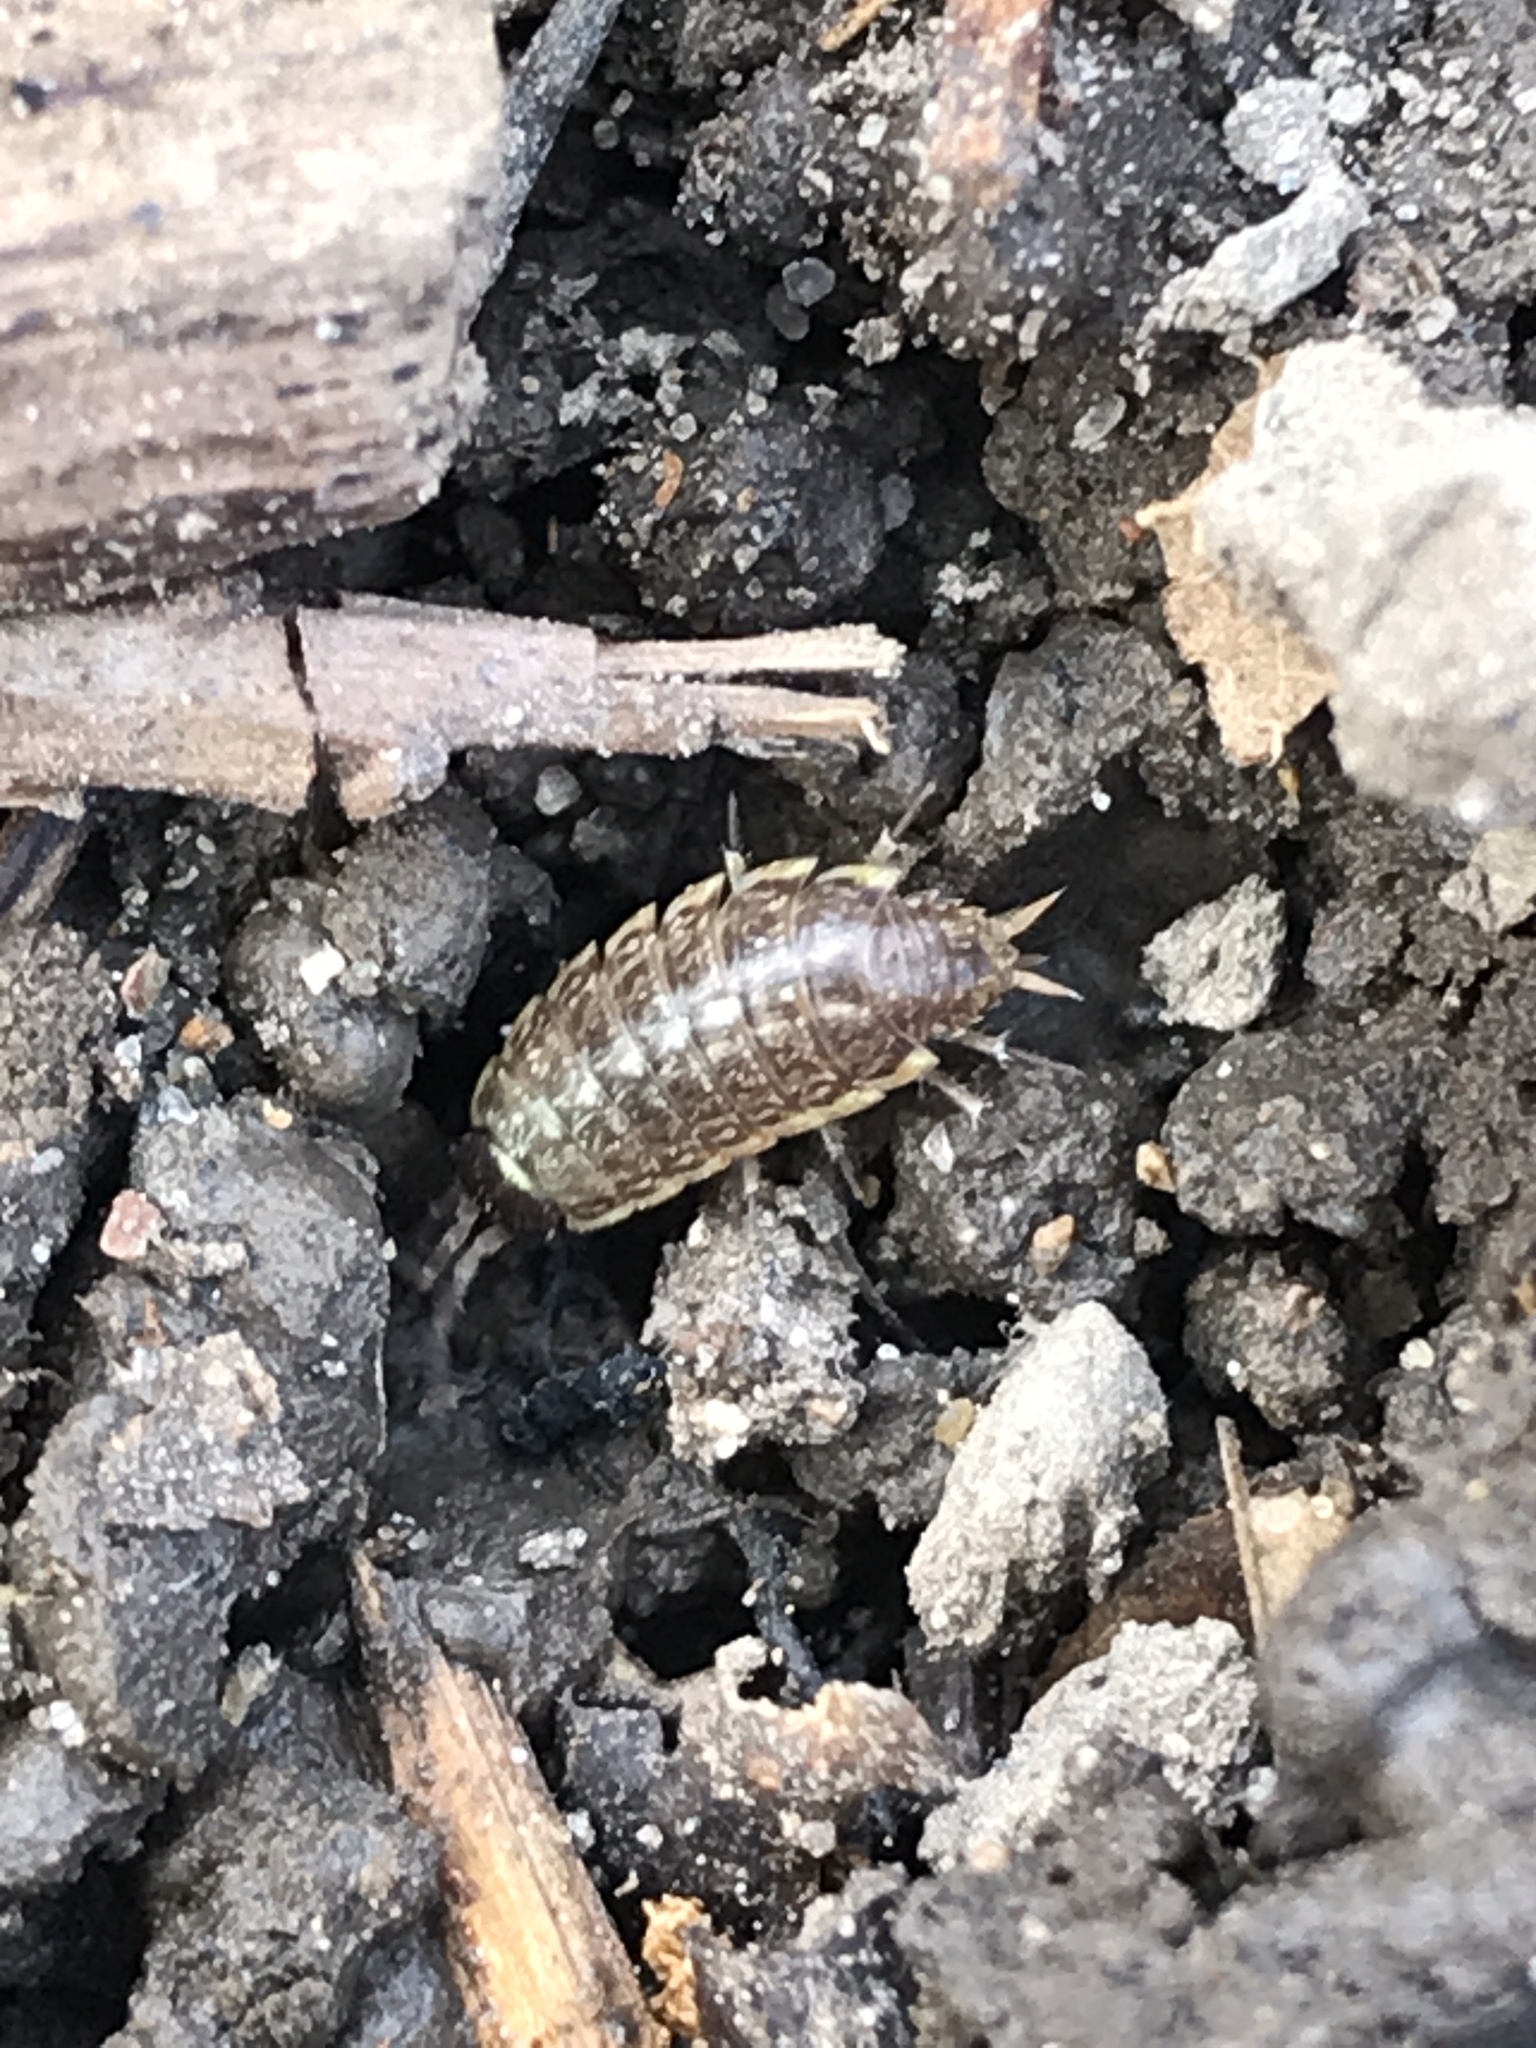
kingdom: Animalia
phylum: Arthropoda
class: Malacostraca
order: Isopoda
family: Philosciidae
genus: Philoscia
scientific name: Philoscia muscorum
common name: Common striped woodlouse
